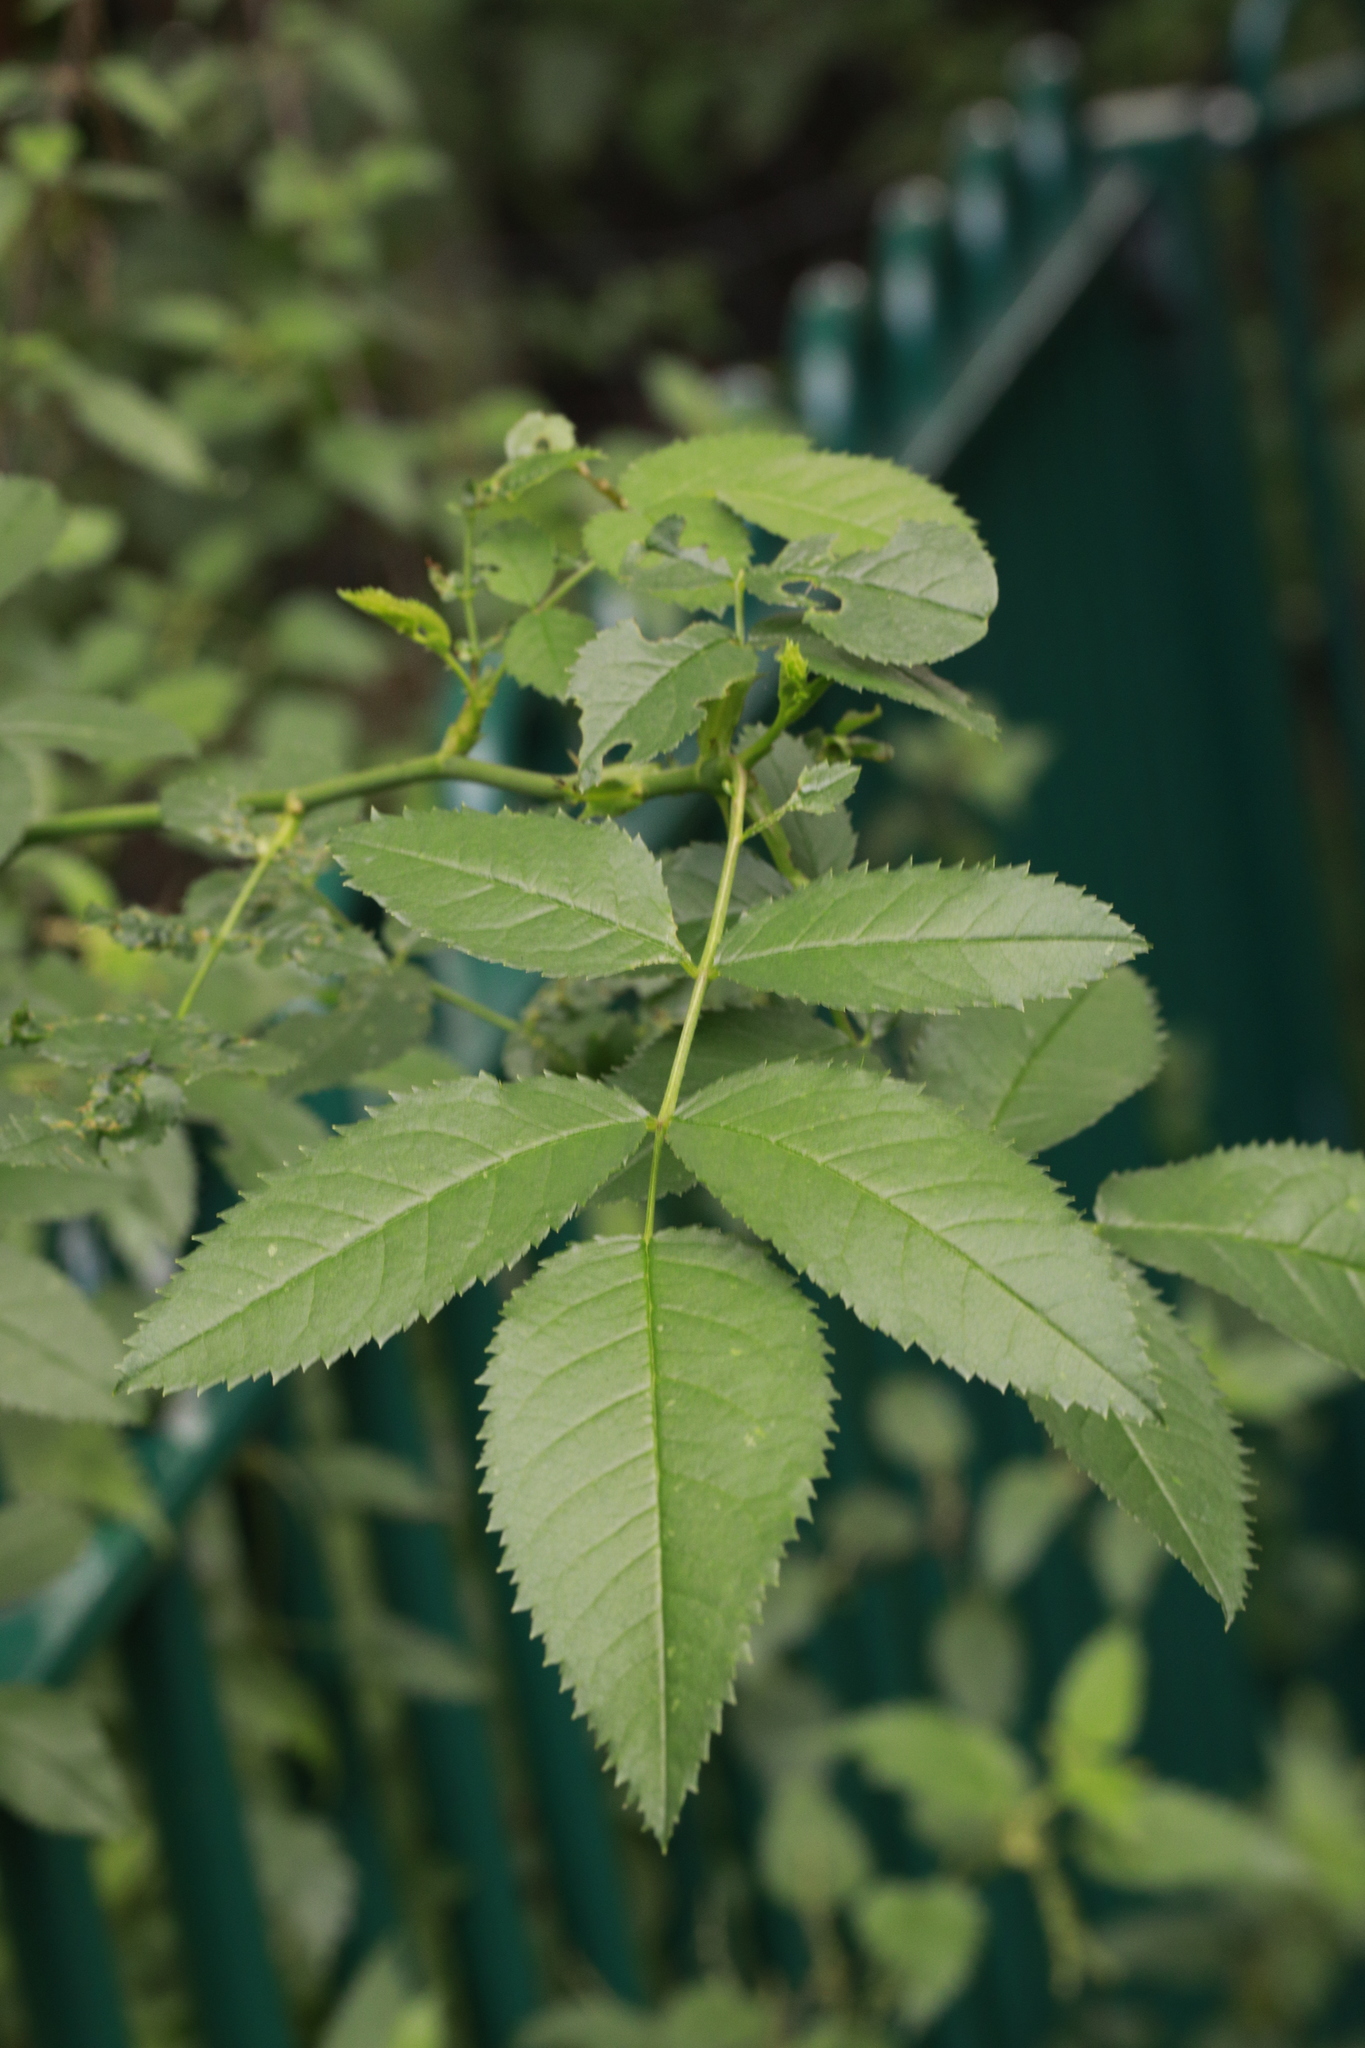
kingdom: Plantae
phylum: Tracheophyta
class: Magnoliopsida
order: Rosales
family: Rosaceae
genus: Rosa
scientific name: Rosa canina
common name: Dog rose
